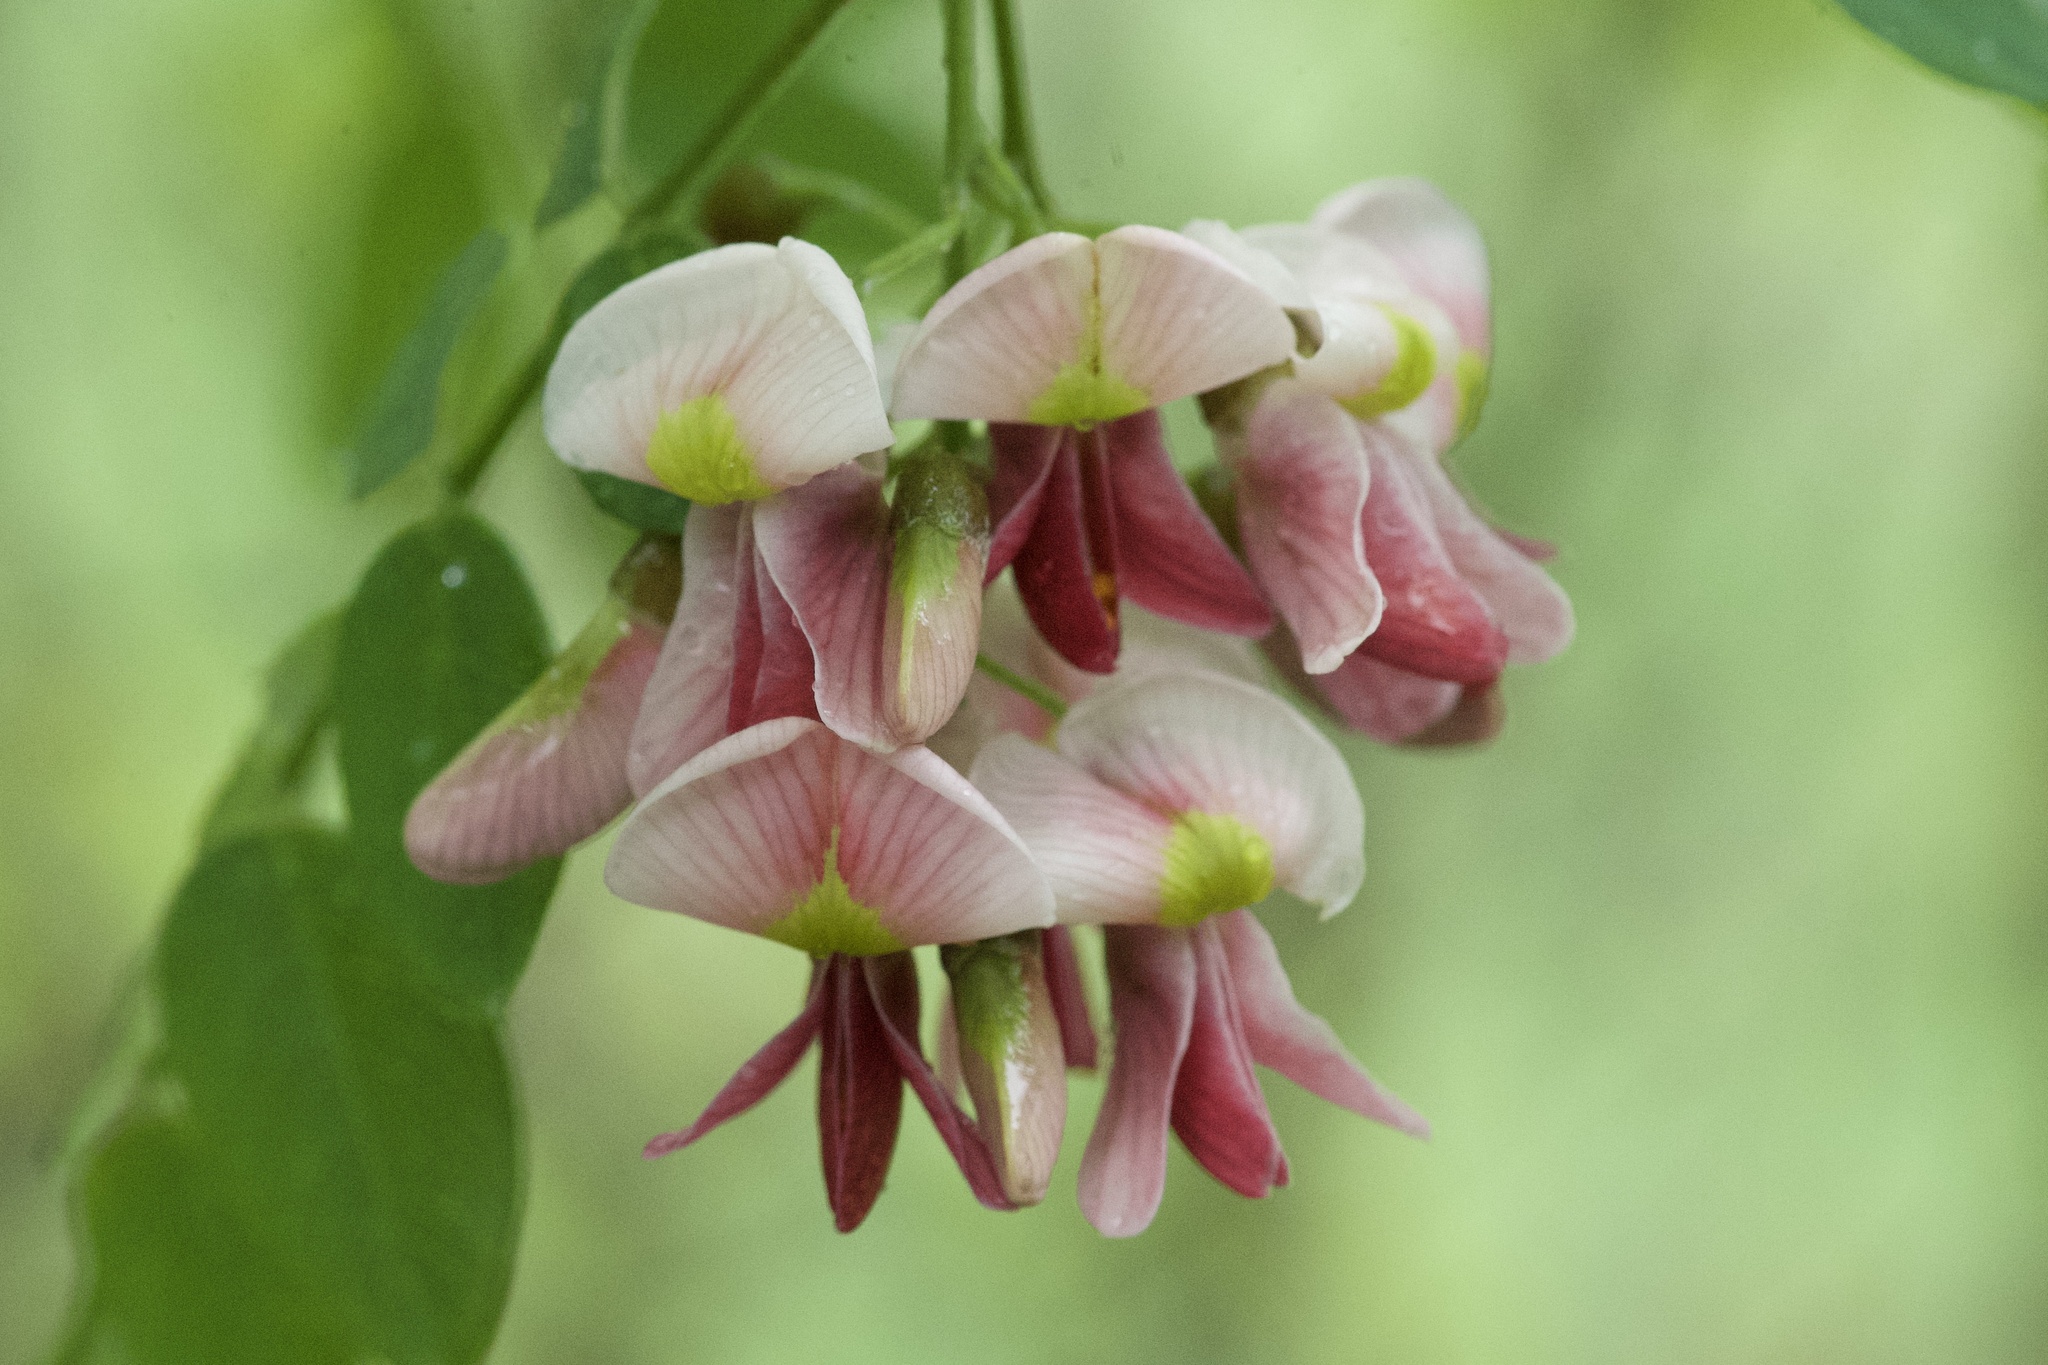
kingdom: Plantae
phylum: Tracheophyta
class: Magnoliopsida
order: Fabales
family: Fabaceae
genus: Styphnolobium
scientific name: Styphnolobium affine
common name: Texas sophora
